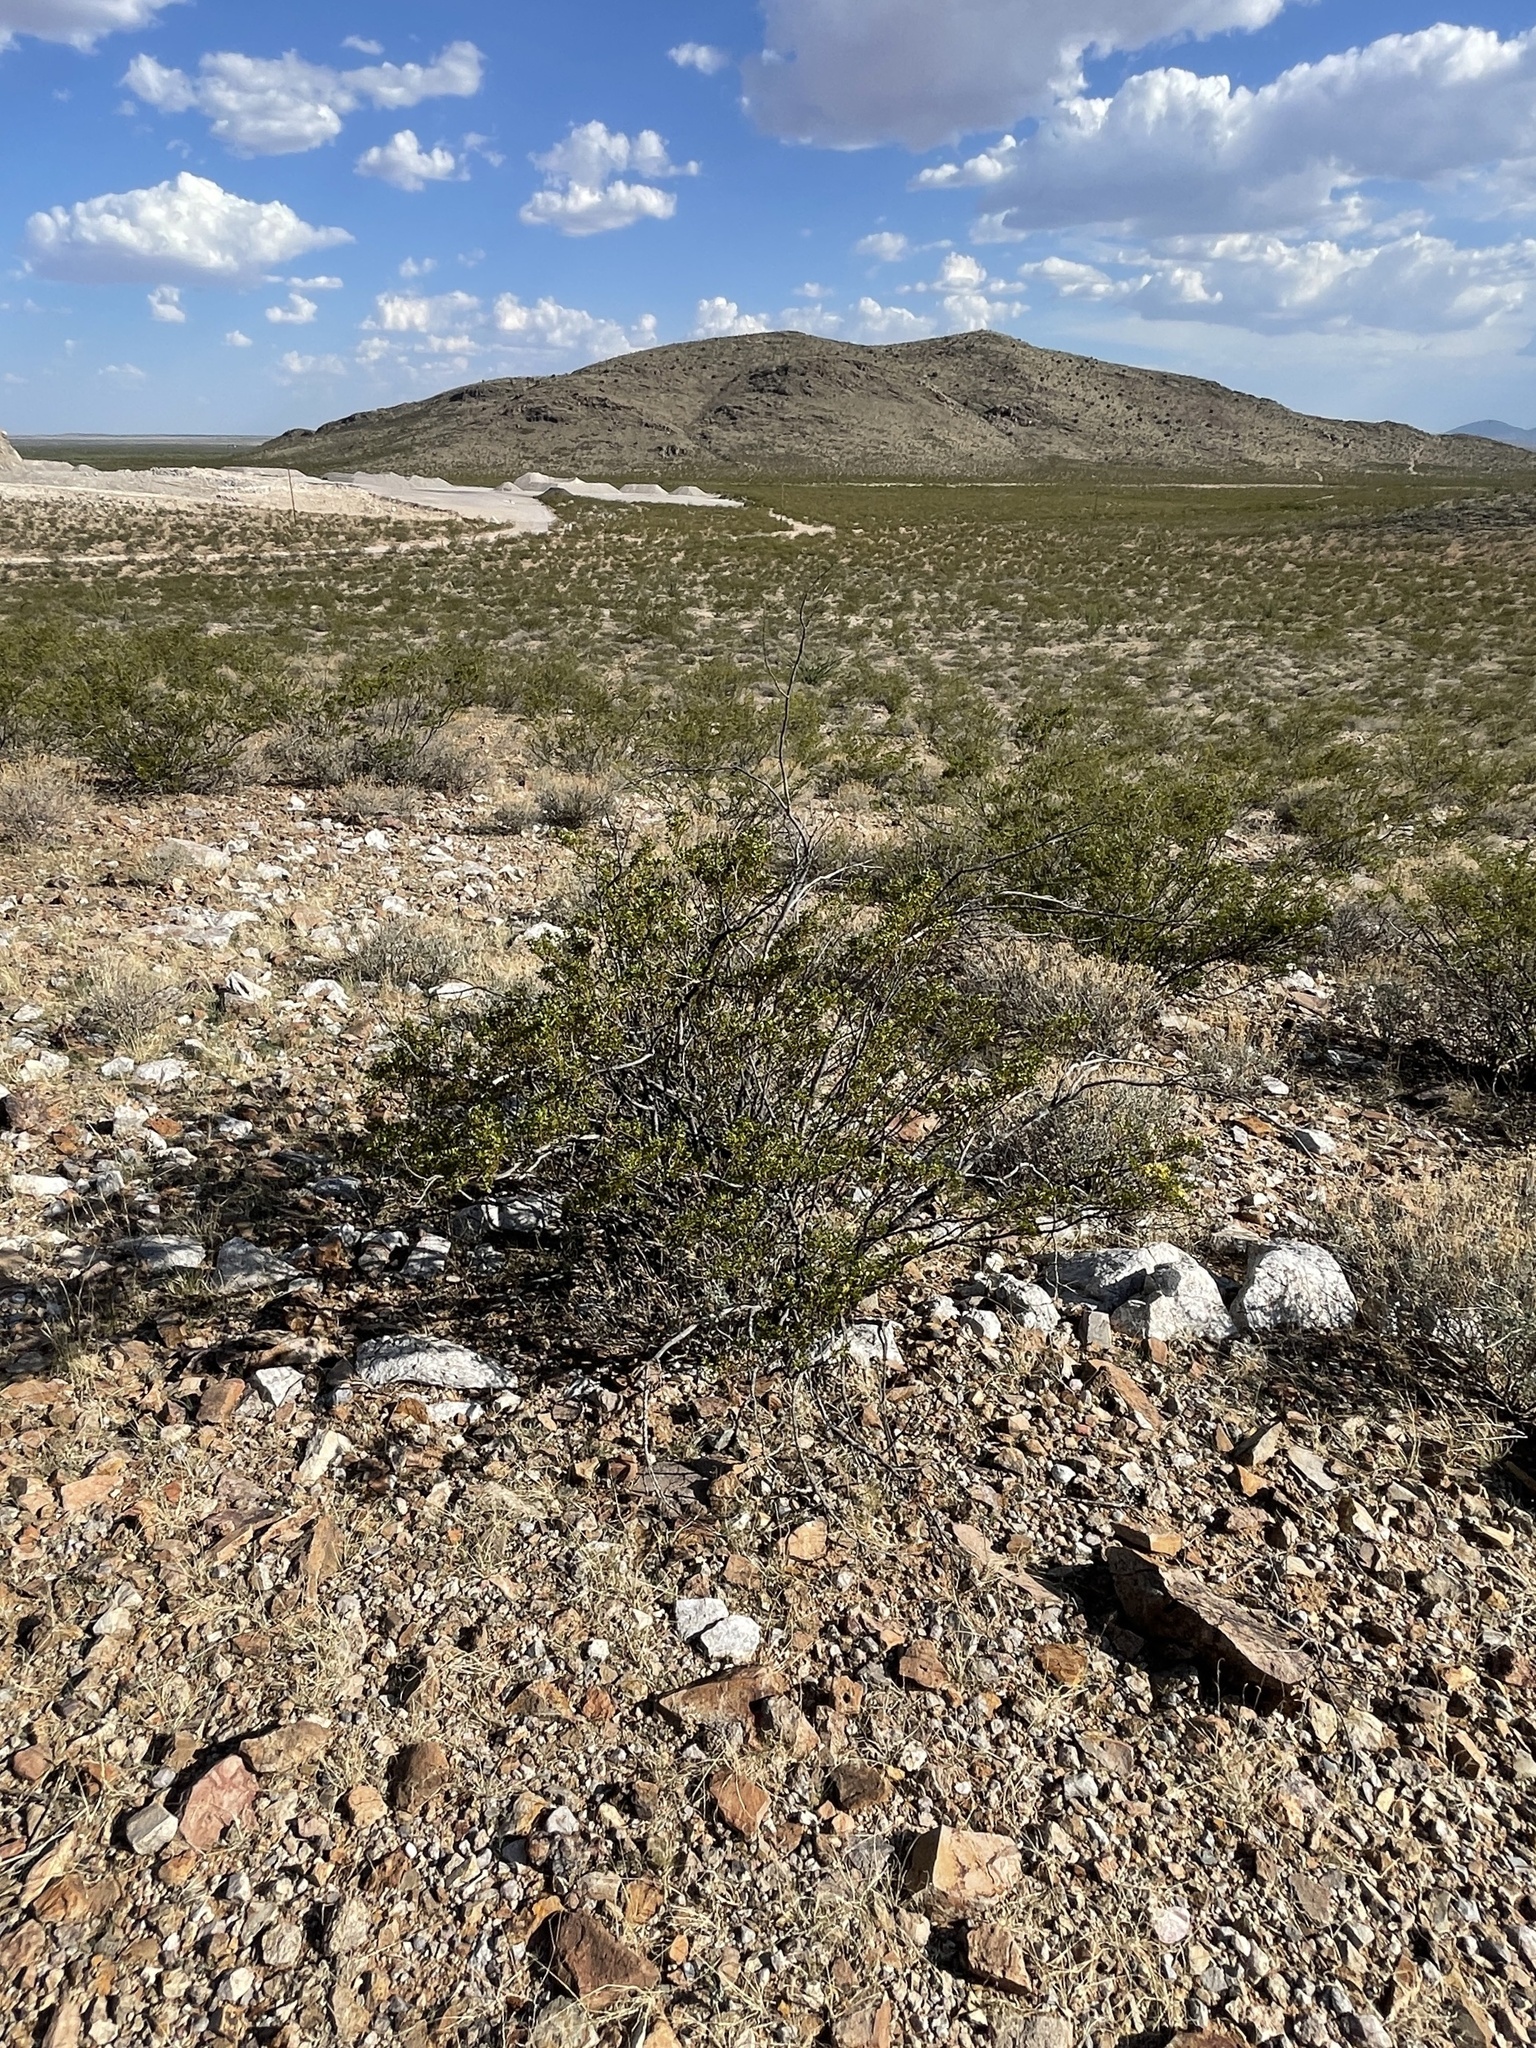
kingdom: Plantae
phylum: Tracheophyta
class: Magnoliopsida
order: Zygophyllales
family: Zygophyllaceae
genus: Larrea
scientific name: Larrea tridentata
